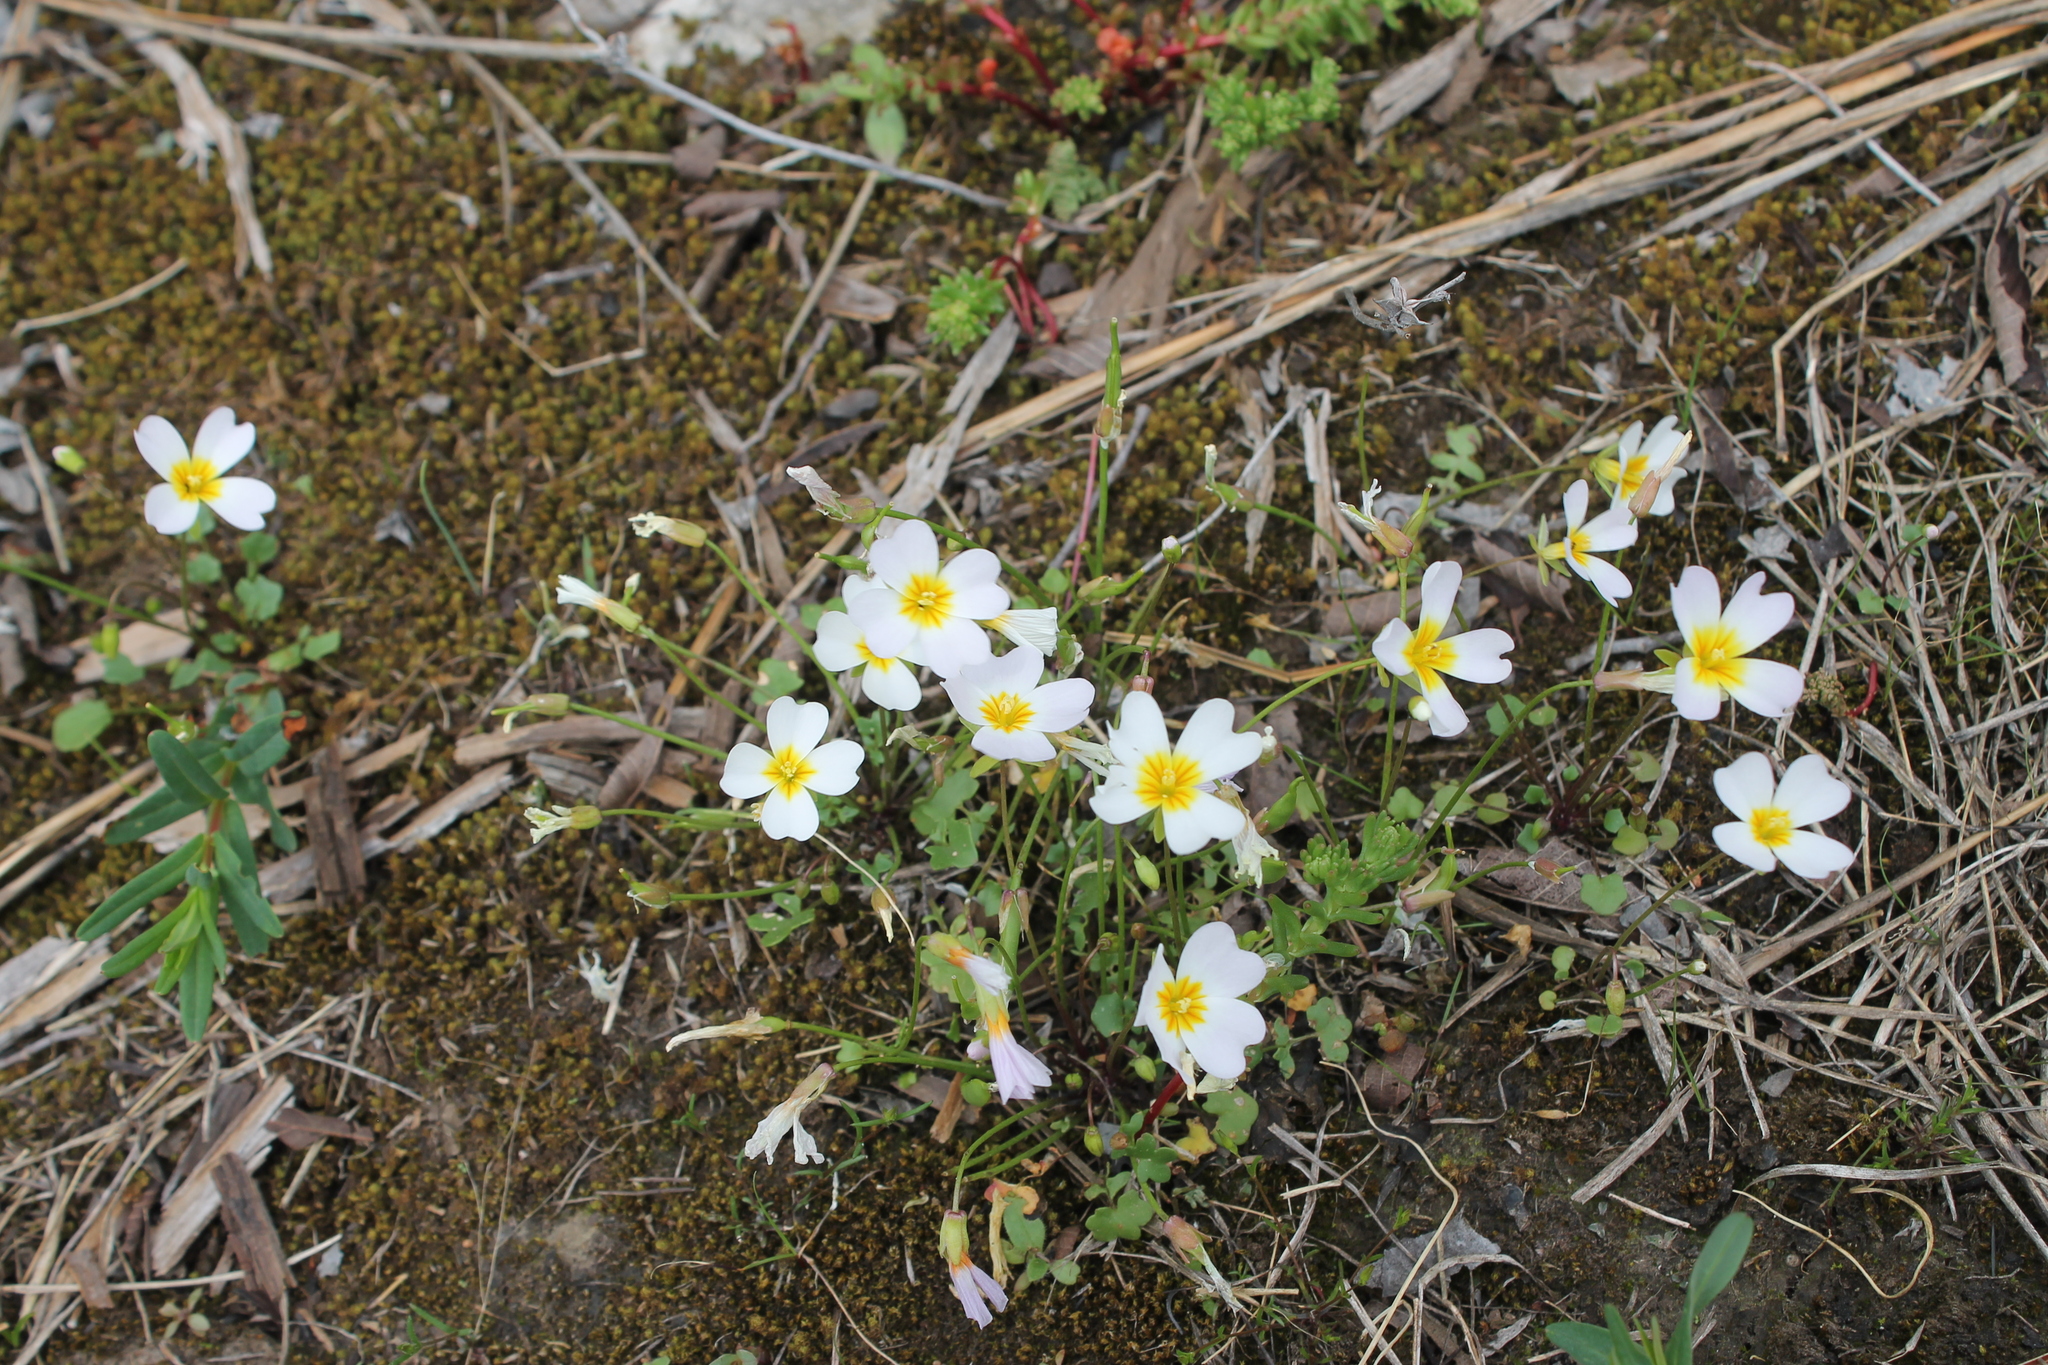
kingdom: Plantae
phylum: Tracheophyta
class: Magnoliopsida
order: Brassicales
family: Brassicaceae
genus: Leavenworthia
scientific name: Leavenworthia stylosa
